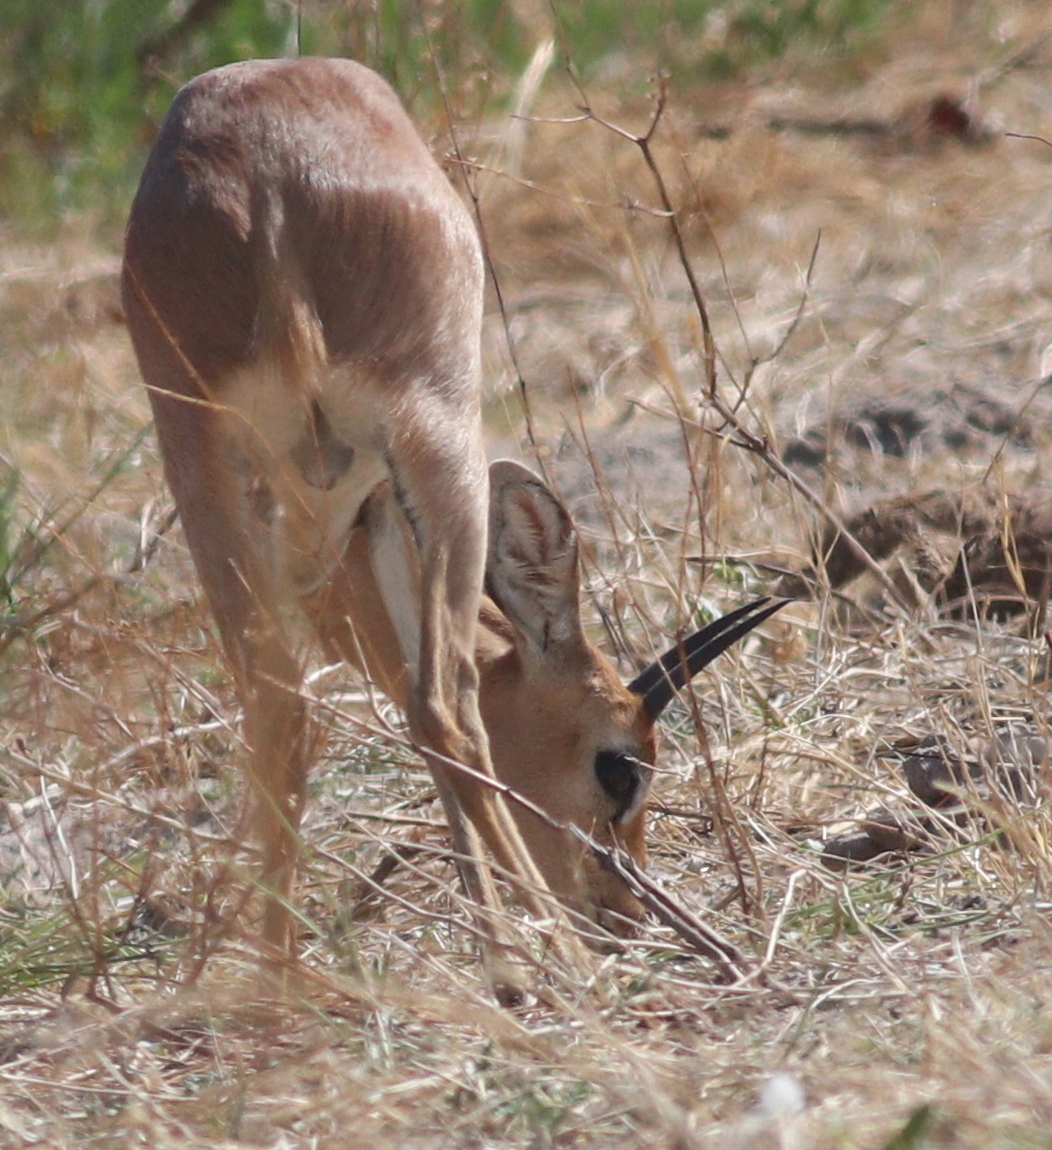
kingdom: Animalia
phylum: Chordata
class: Mammalia
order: Artiodactyla
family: Bovidae
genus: Raphicerus
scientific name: Raphicerus campestris
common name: Steenbok
